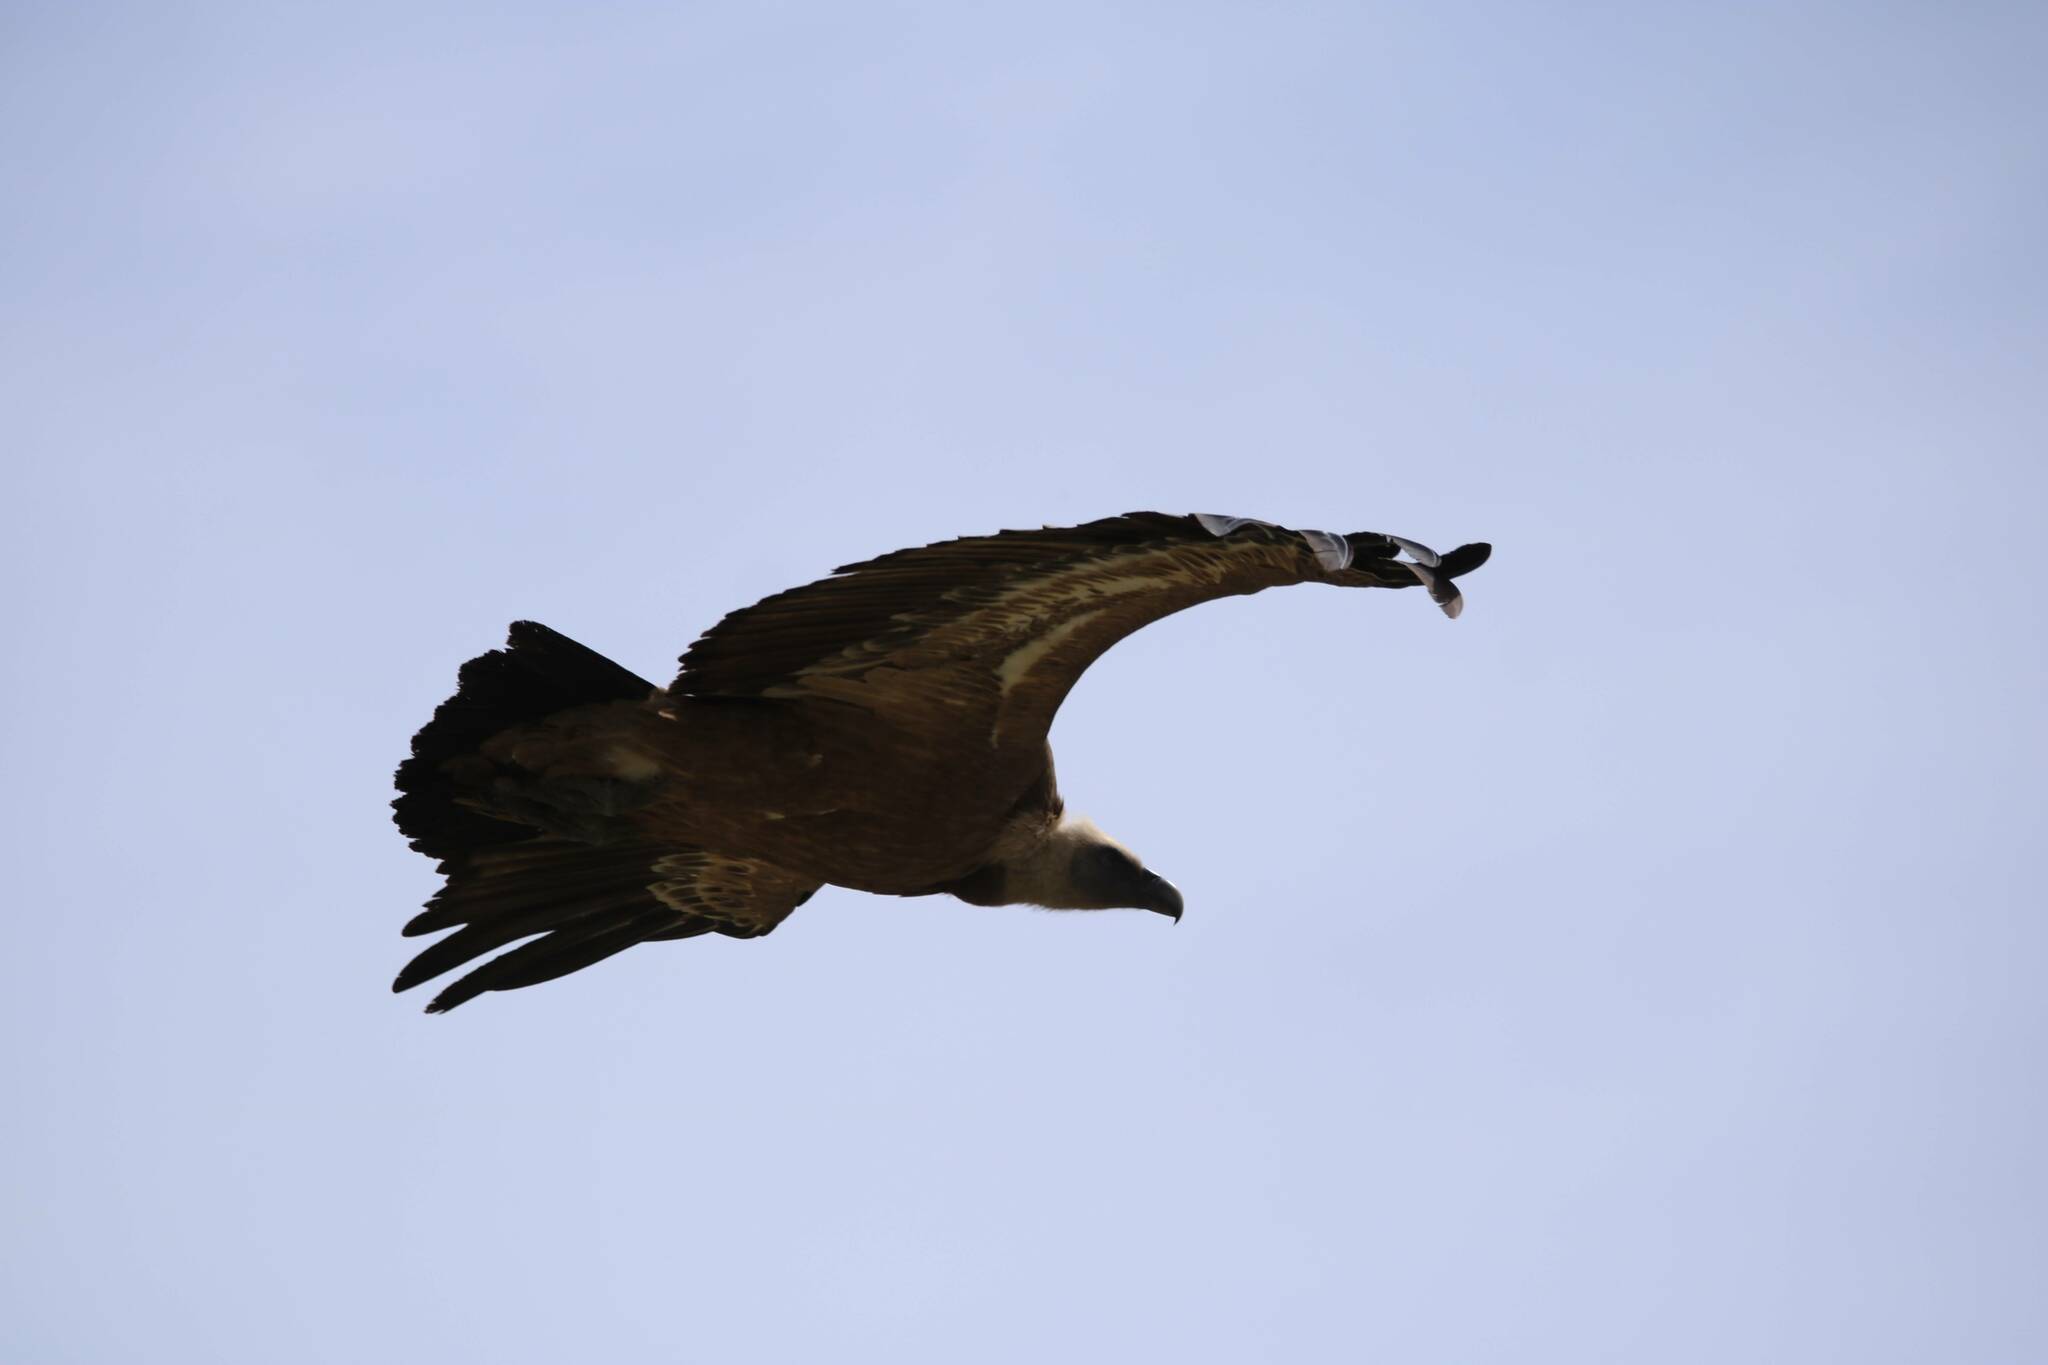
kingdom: Animalia
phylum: Chordata
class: Aves
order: Accipitriformes
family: Accipitridae
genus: Gyps
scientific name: Gyps fulvus
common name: Griffon vulture
